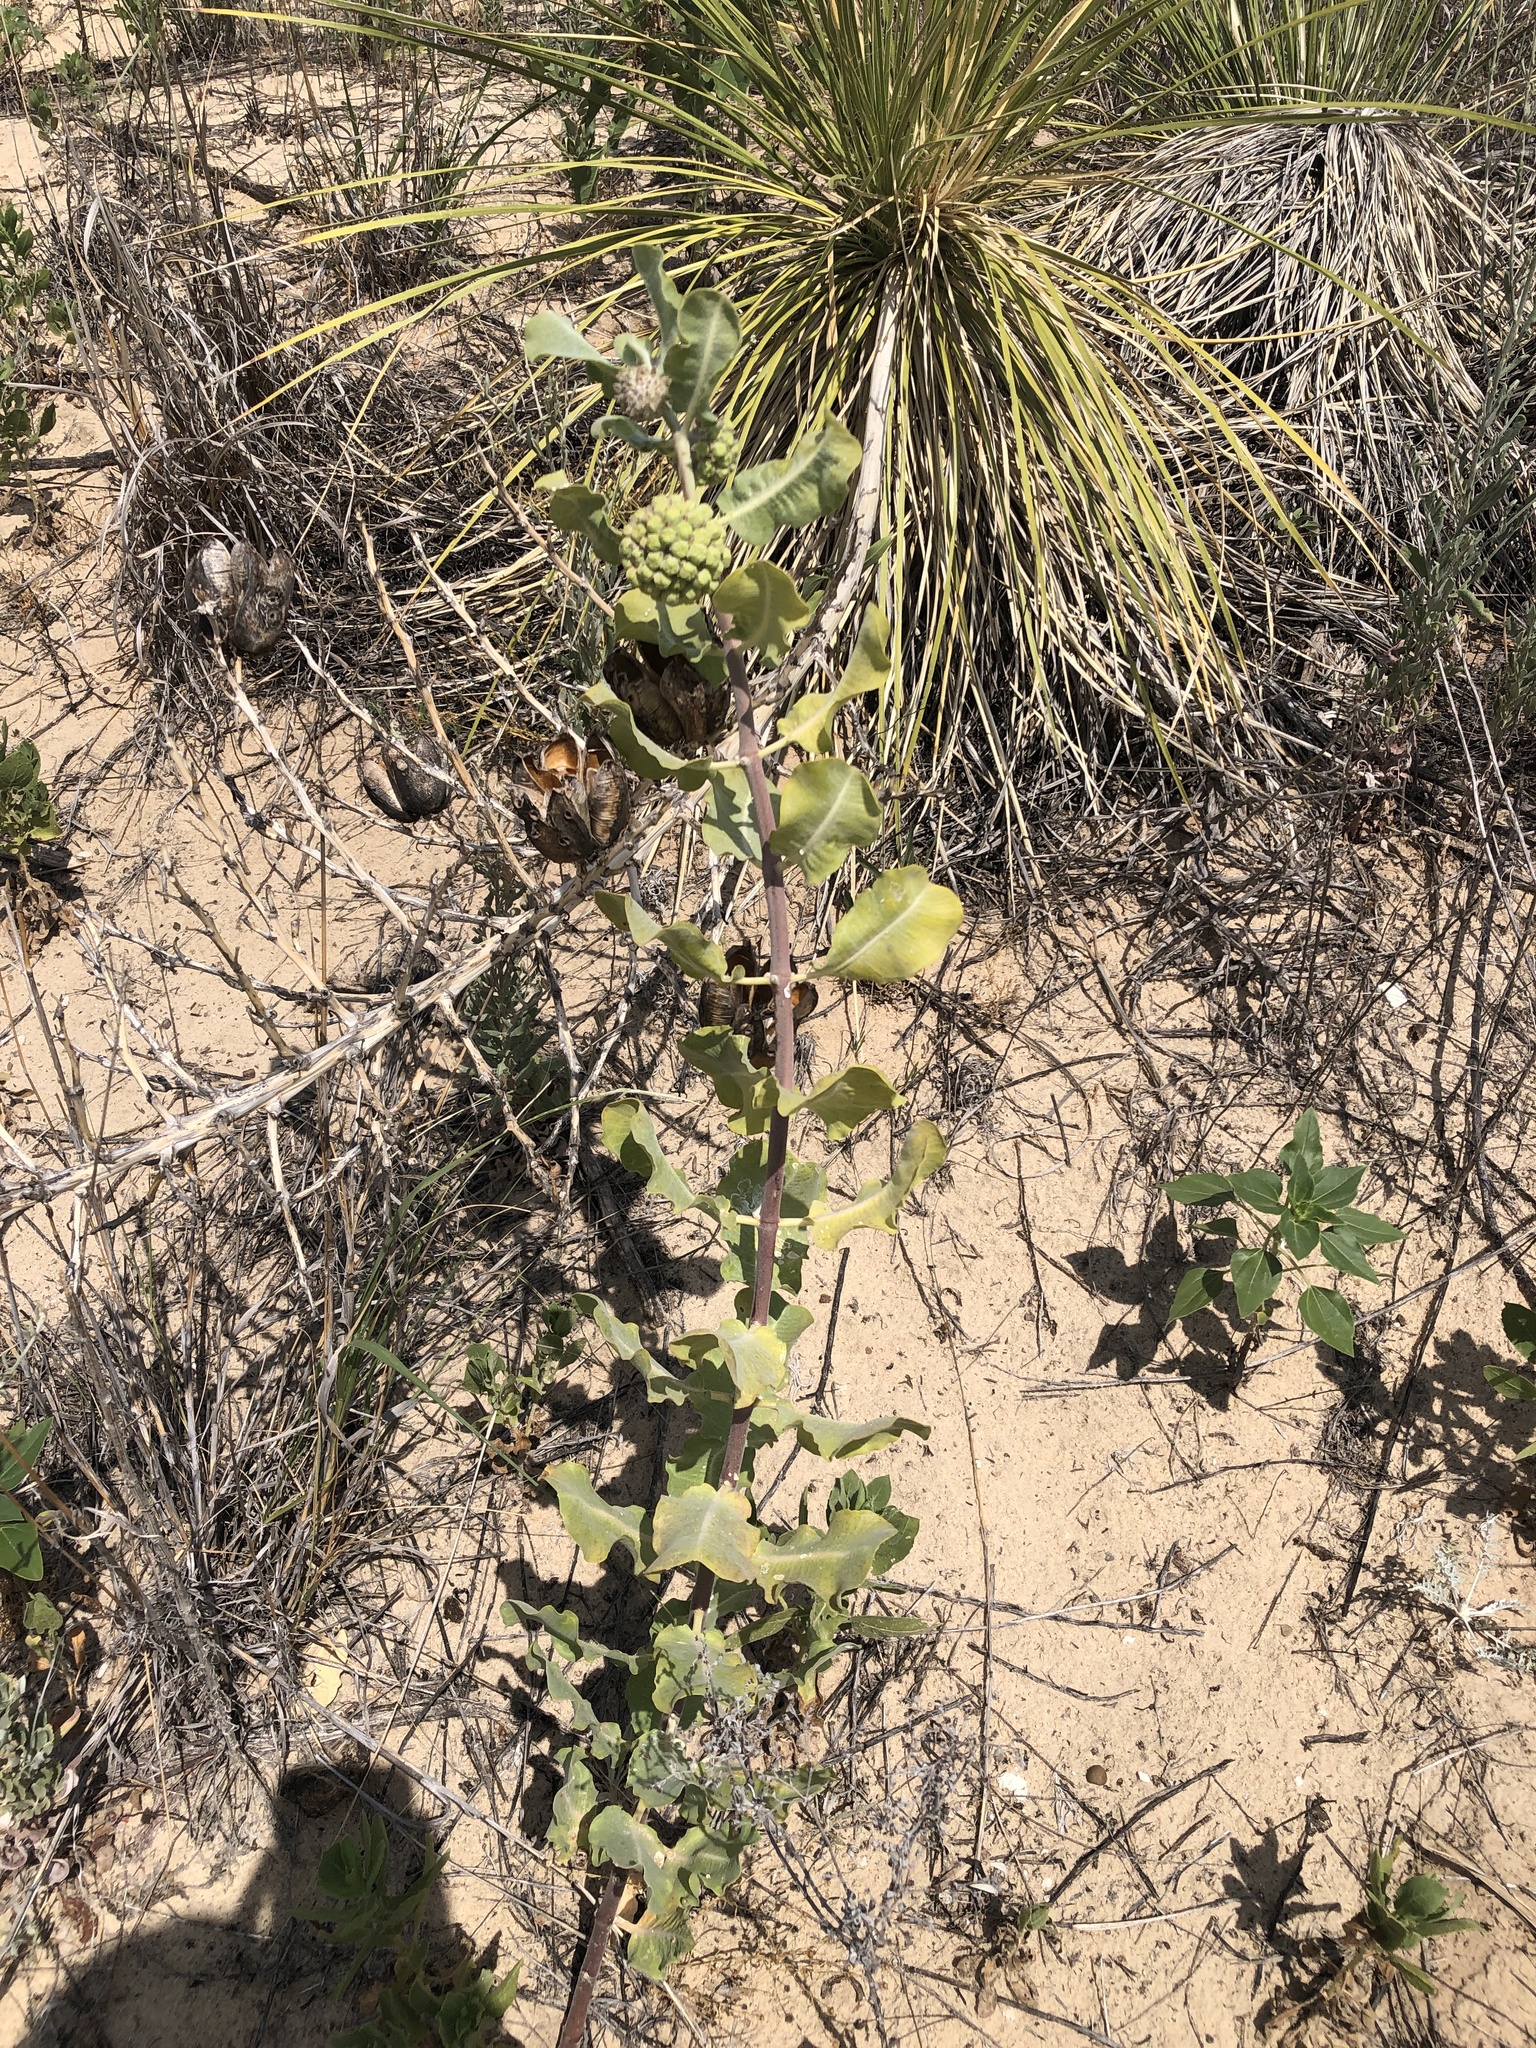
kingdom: Plantae
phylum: Tracheophyta
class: Magnoliopsida
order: Gentianales
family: Apocynaceae
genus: Asclepias
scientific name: Asclepias arenaria
